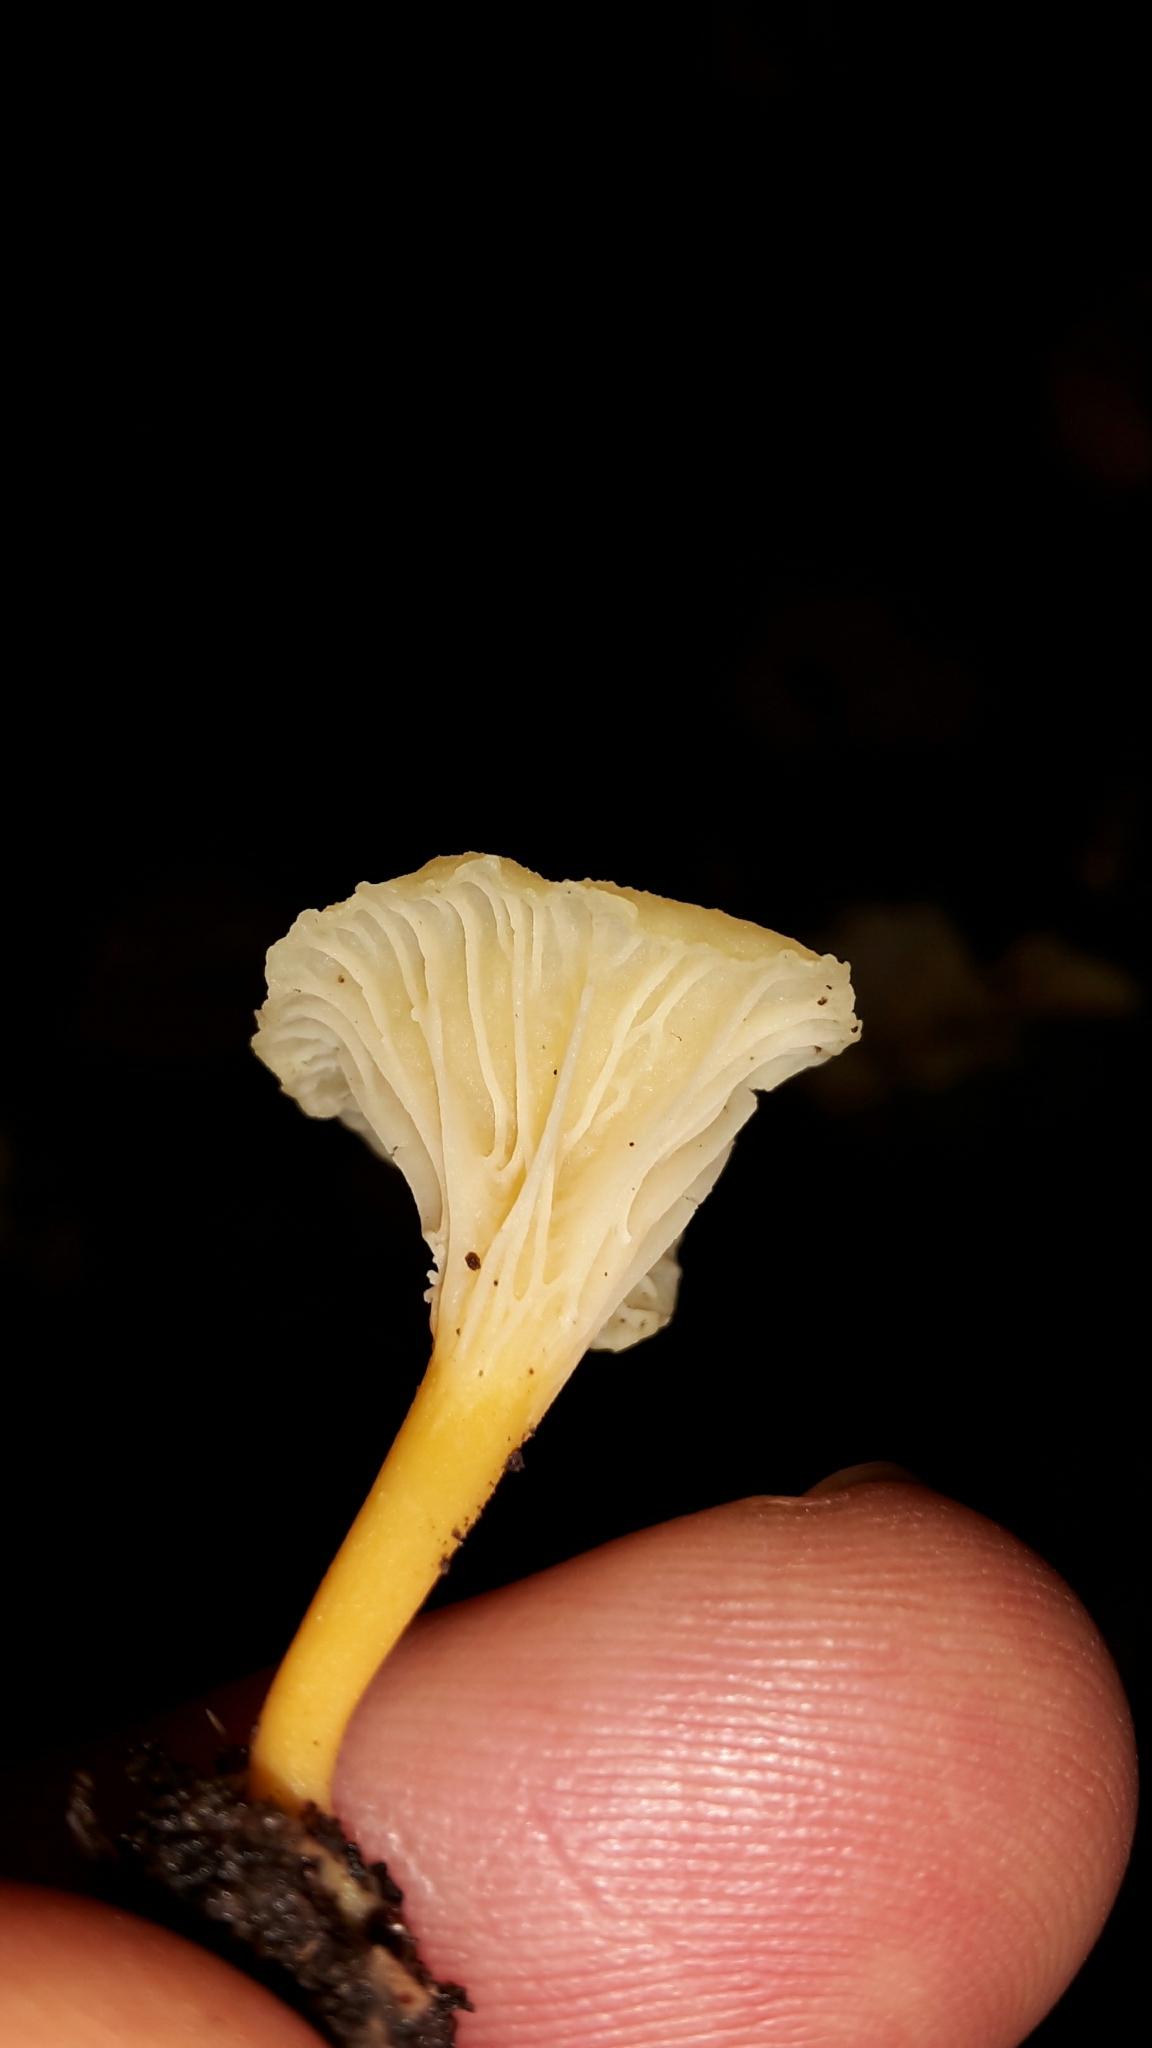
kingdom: Fungi
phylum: Basidiomycota
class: Agaricomycetes
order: Cantharellales
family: Hydnaceae
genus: Cantharellus
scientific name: Cantharellus wellingtonensis
